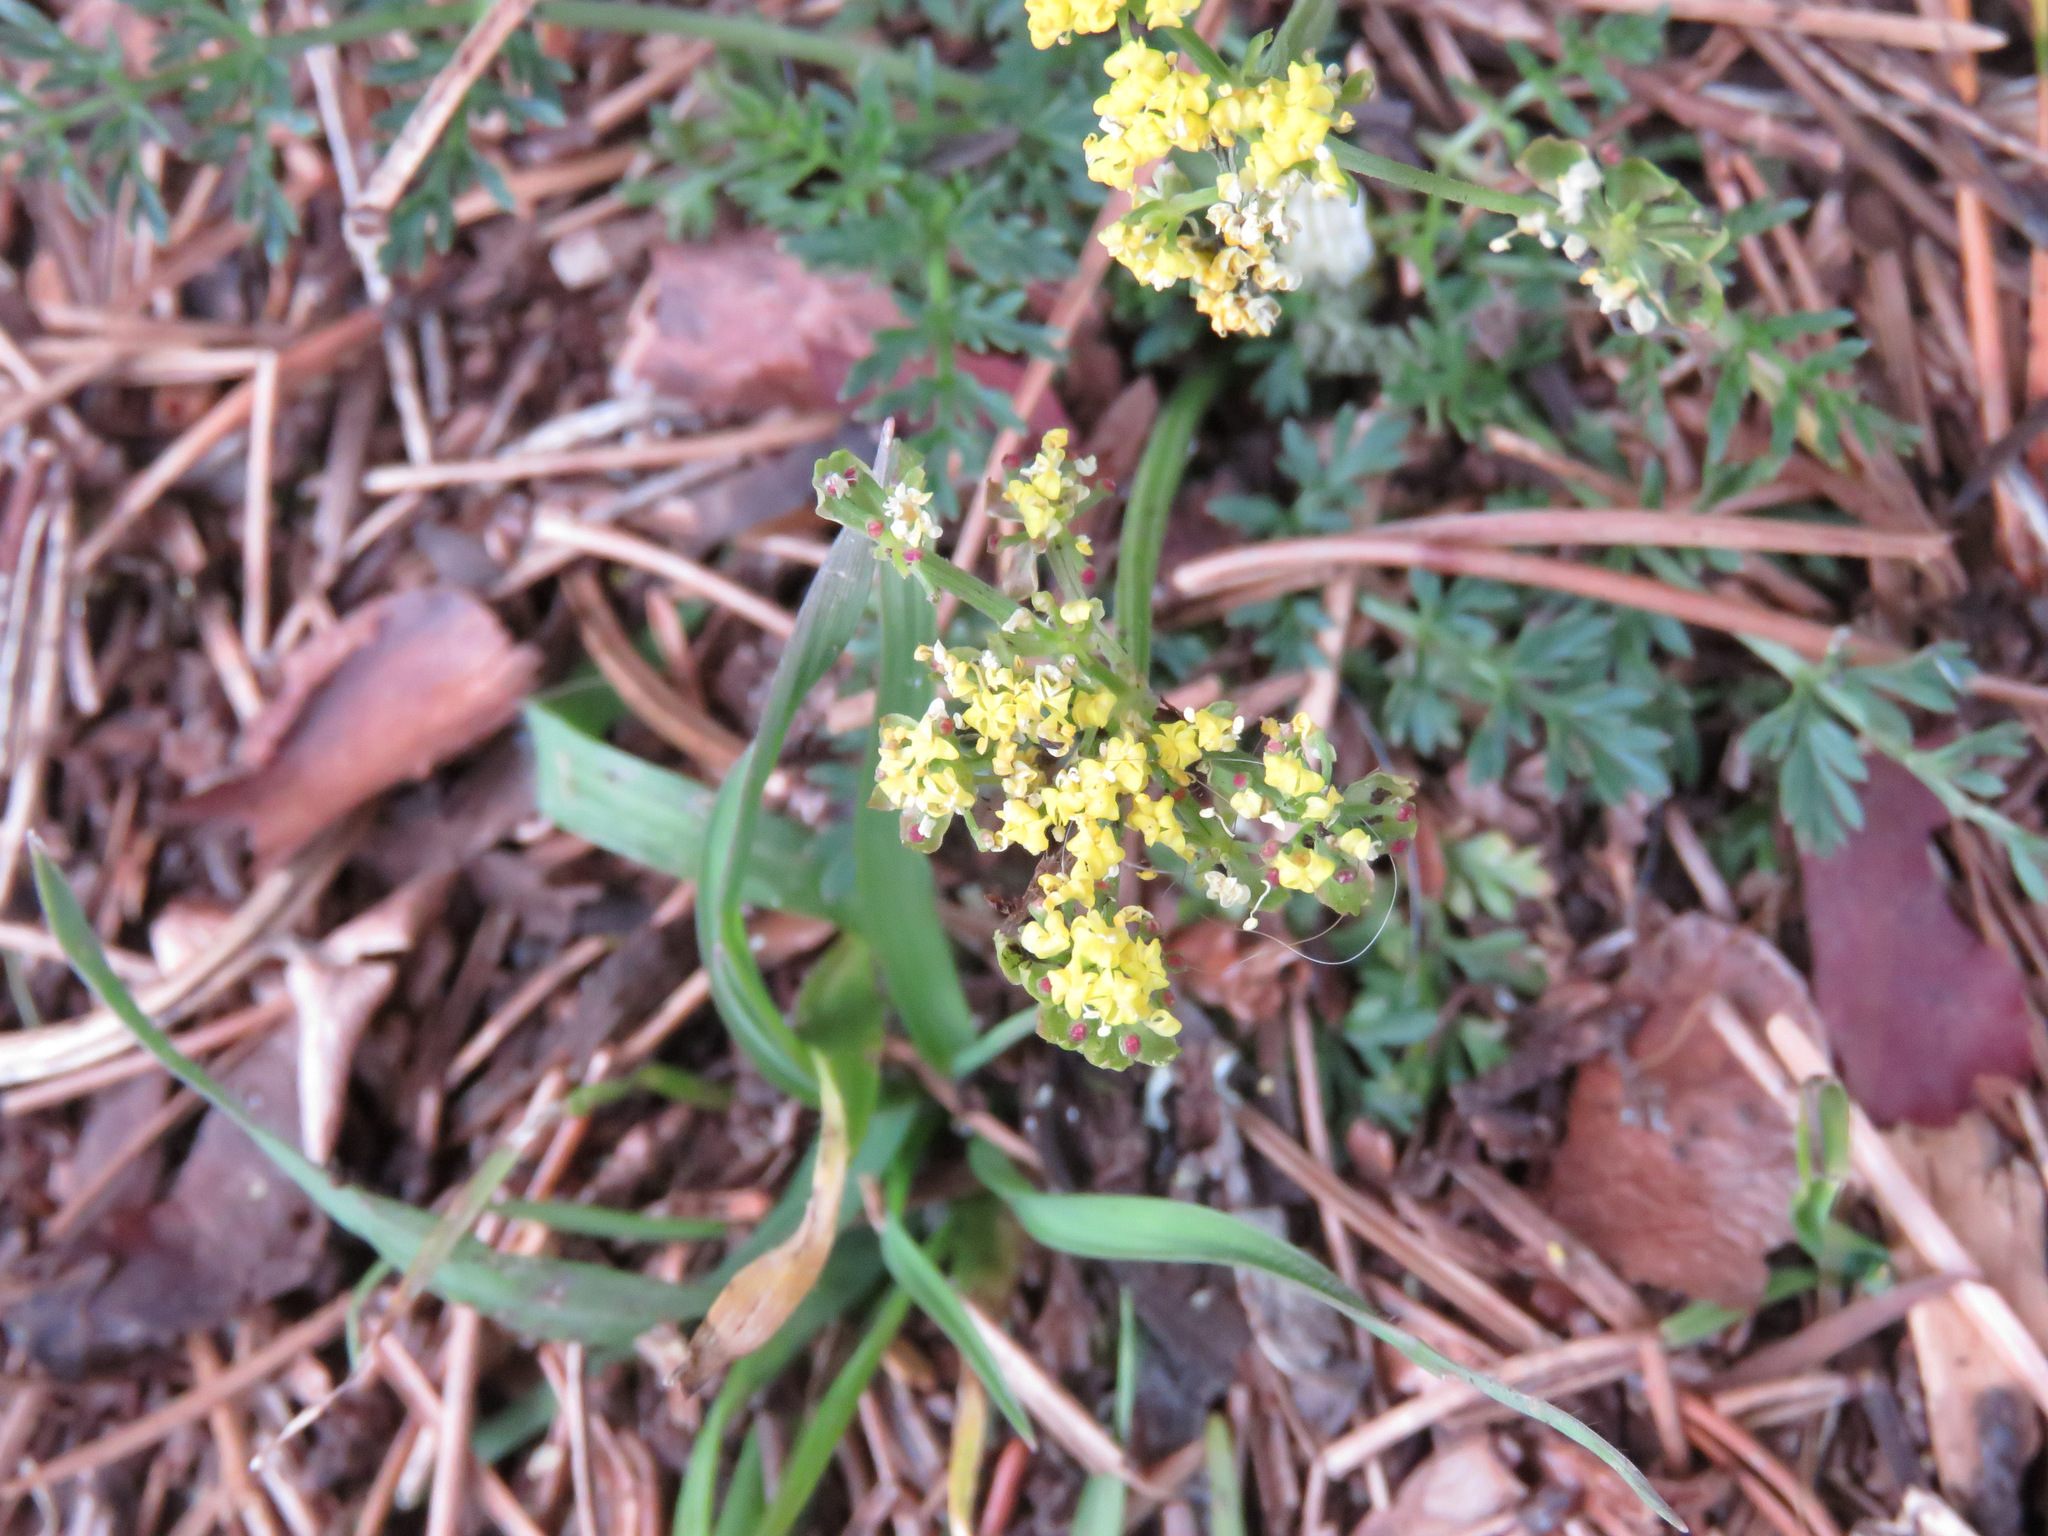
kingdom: Plantae
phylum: Tracheophyta
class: Magnoliopsida
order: Apiales
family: Apiaceae
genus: Lomatium
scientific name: Lomatium utriculatum
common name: Fine-leaf desert-parsley
